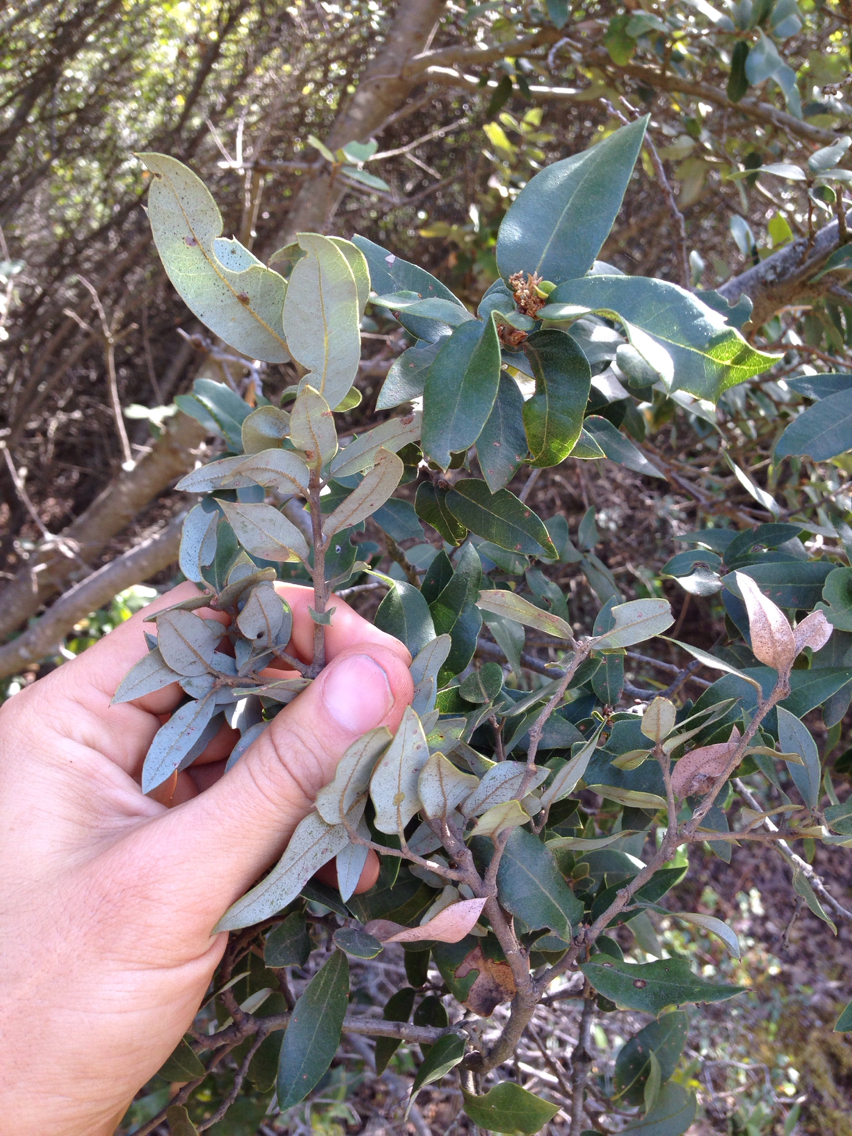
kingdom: Plantae
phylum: Tracheophyta
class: Magnoliopsida
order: Fagales
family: Fagaceae
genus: Quercus
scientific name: Quercus chrysolepis
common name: Canyon live oak
